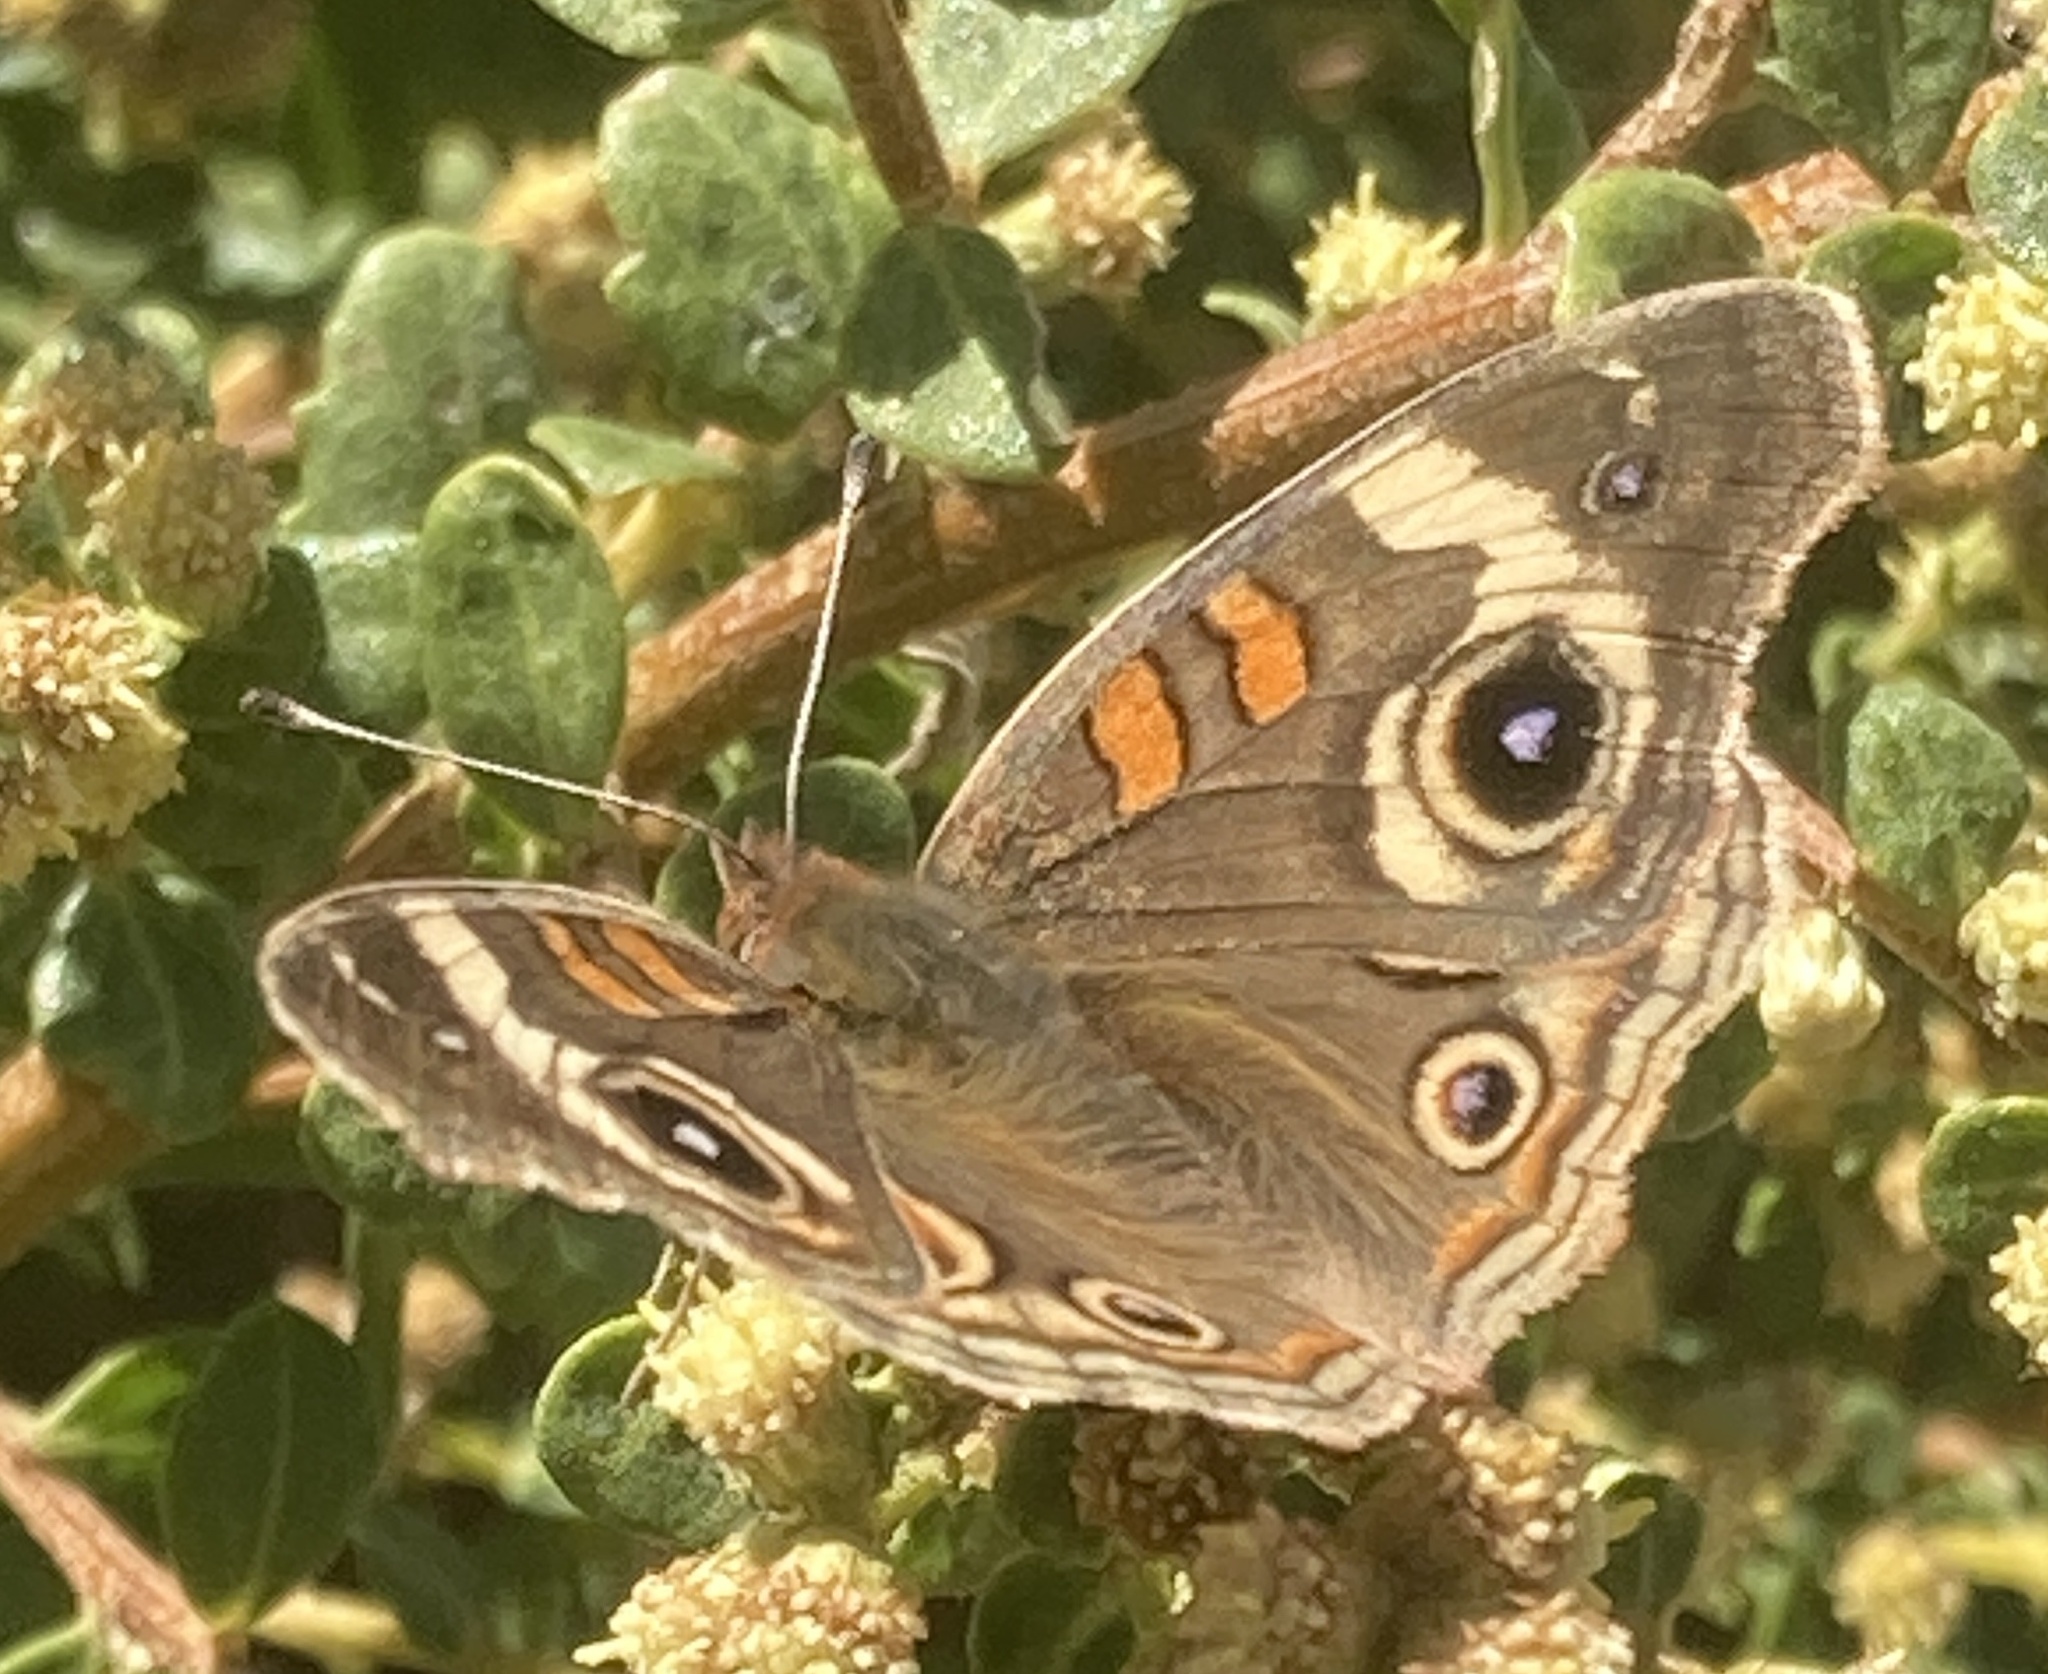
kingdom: Animalia
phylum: Arthropoda
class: Insecta
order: Lepidoptera
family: Nymphalidae
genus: Junonia
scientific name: Junonia grisea
